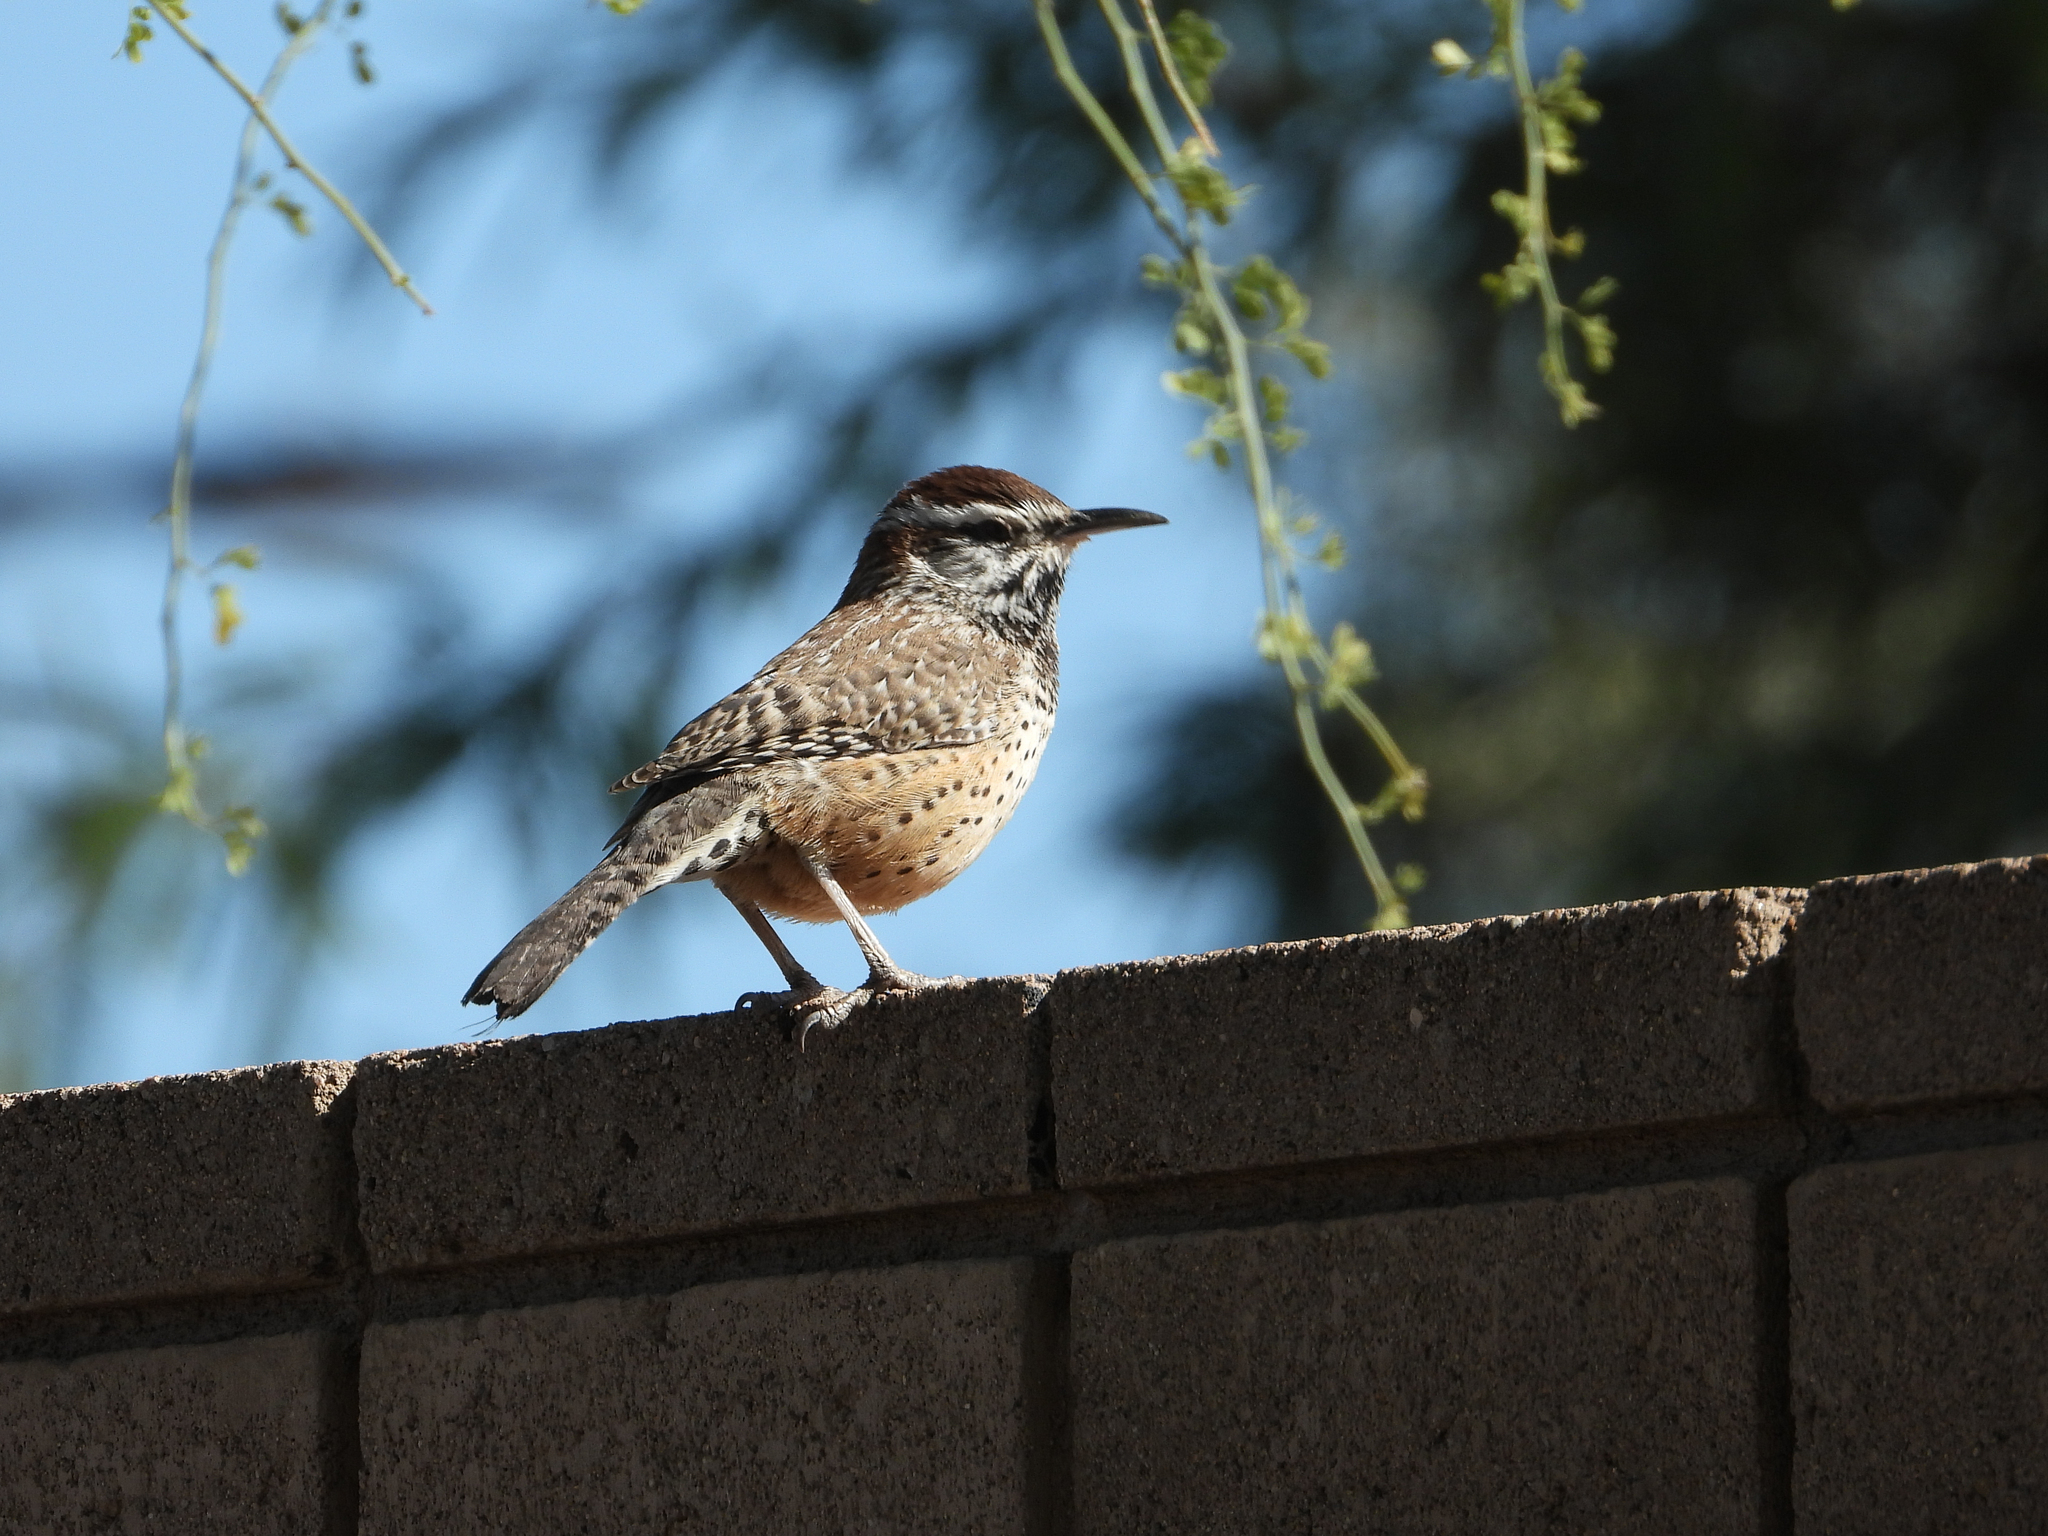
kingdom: Animalia
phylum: Chordata
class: Aves
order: Passeriformes
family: Troglodytidae
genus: Campylorhynchus
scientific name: Campylorhynchus brunneicapillus
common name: Cactus wren
